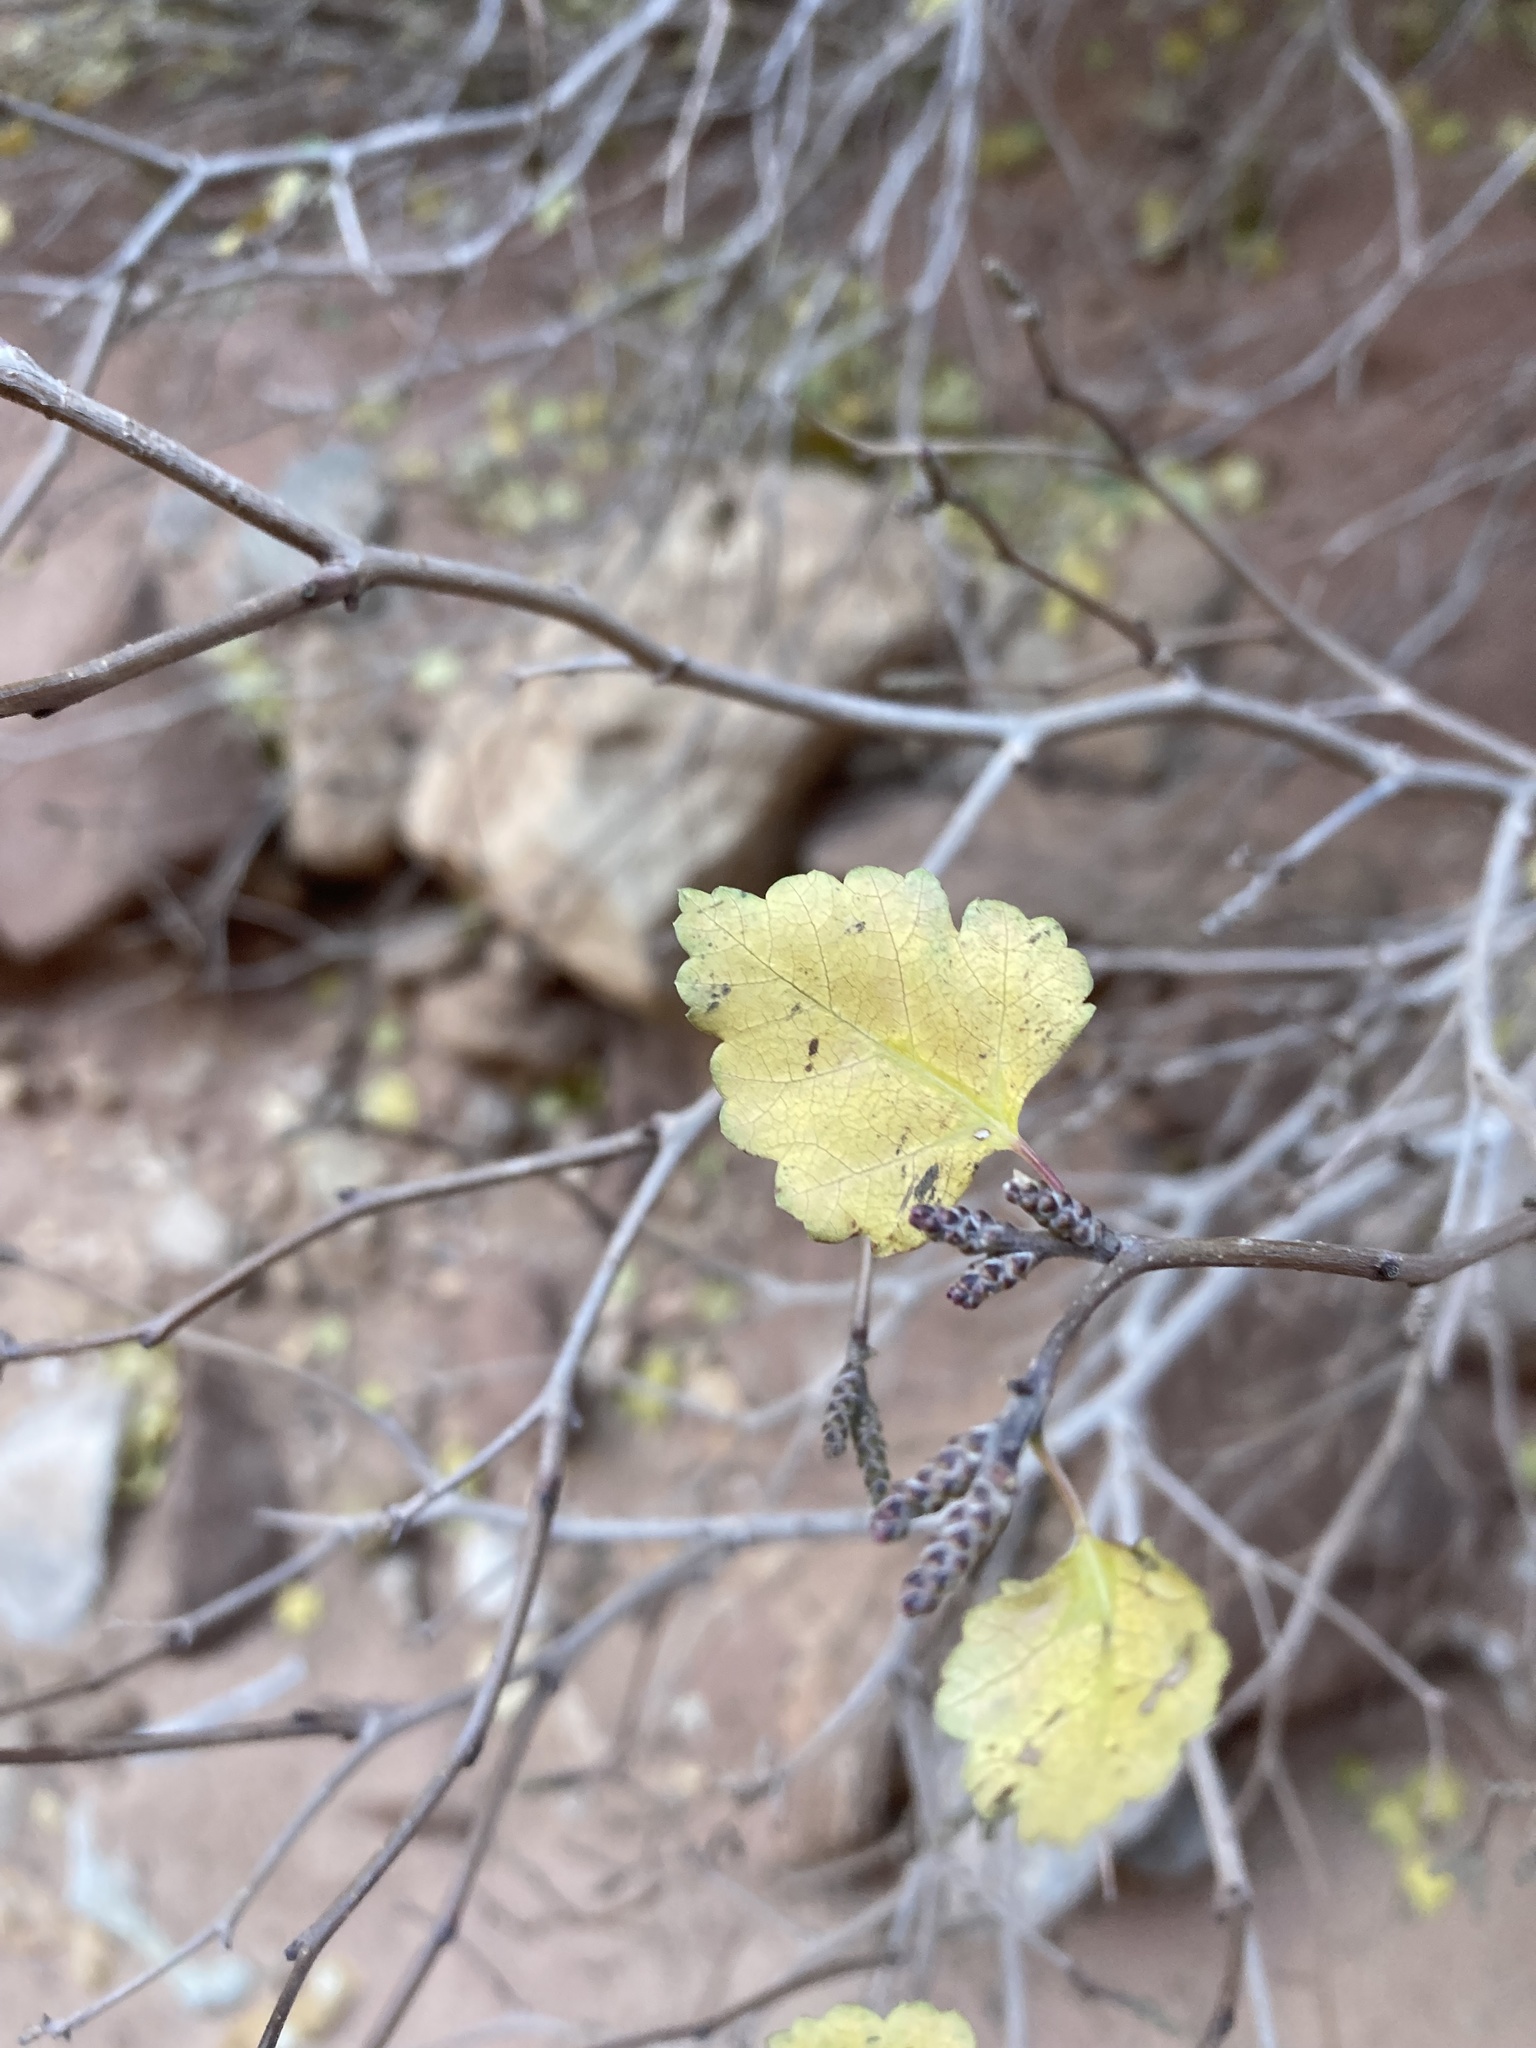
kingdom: Plantae
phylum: Tracheophyta
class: Magnoliopsida
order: Sapindales
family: Anacardiaceae
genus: Rhus
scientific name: Rhus aromatica
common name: Aromatic sumac
